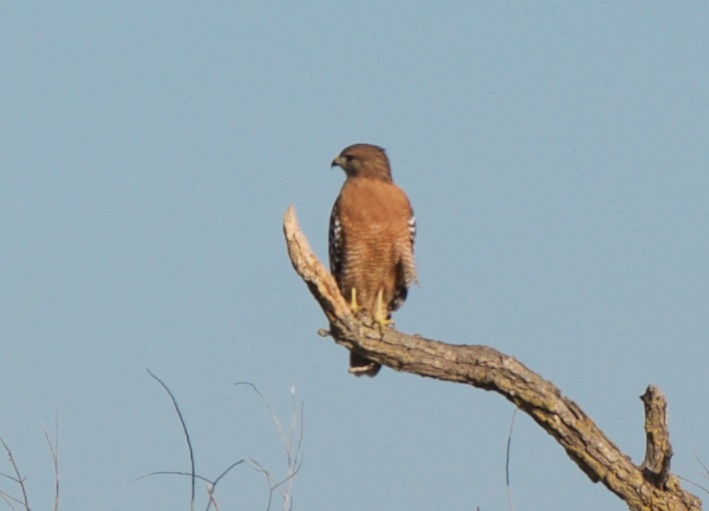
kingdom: Animalia
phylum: Chordata
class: Aves
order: Accipitriformes
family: Accipitridae
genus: Buteo
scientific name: Buteo lineatus
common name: Red-shouldered hawk
